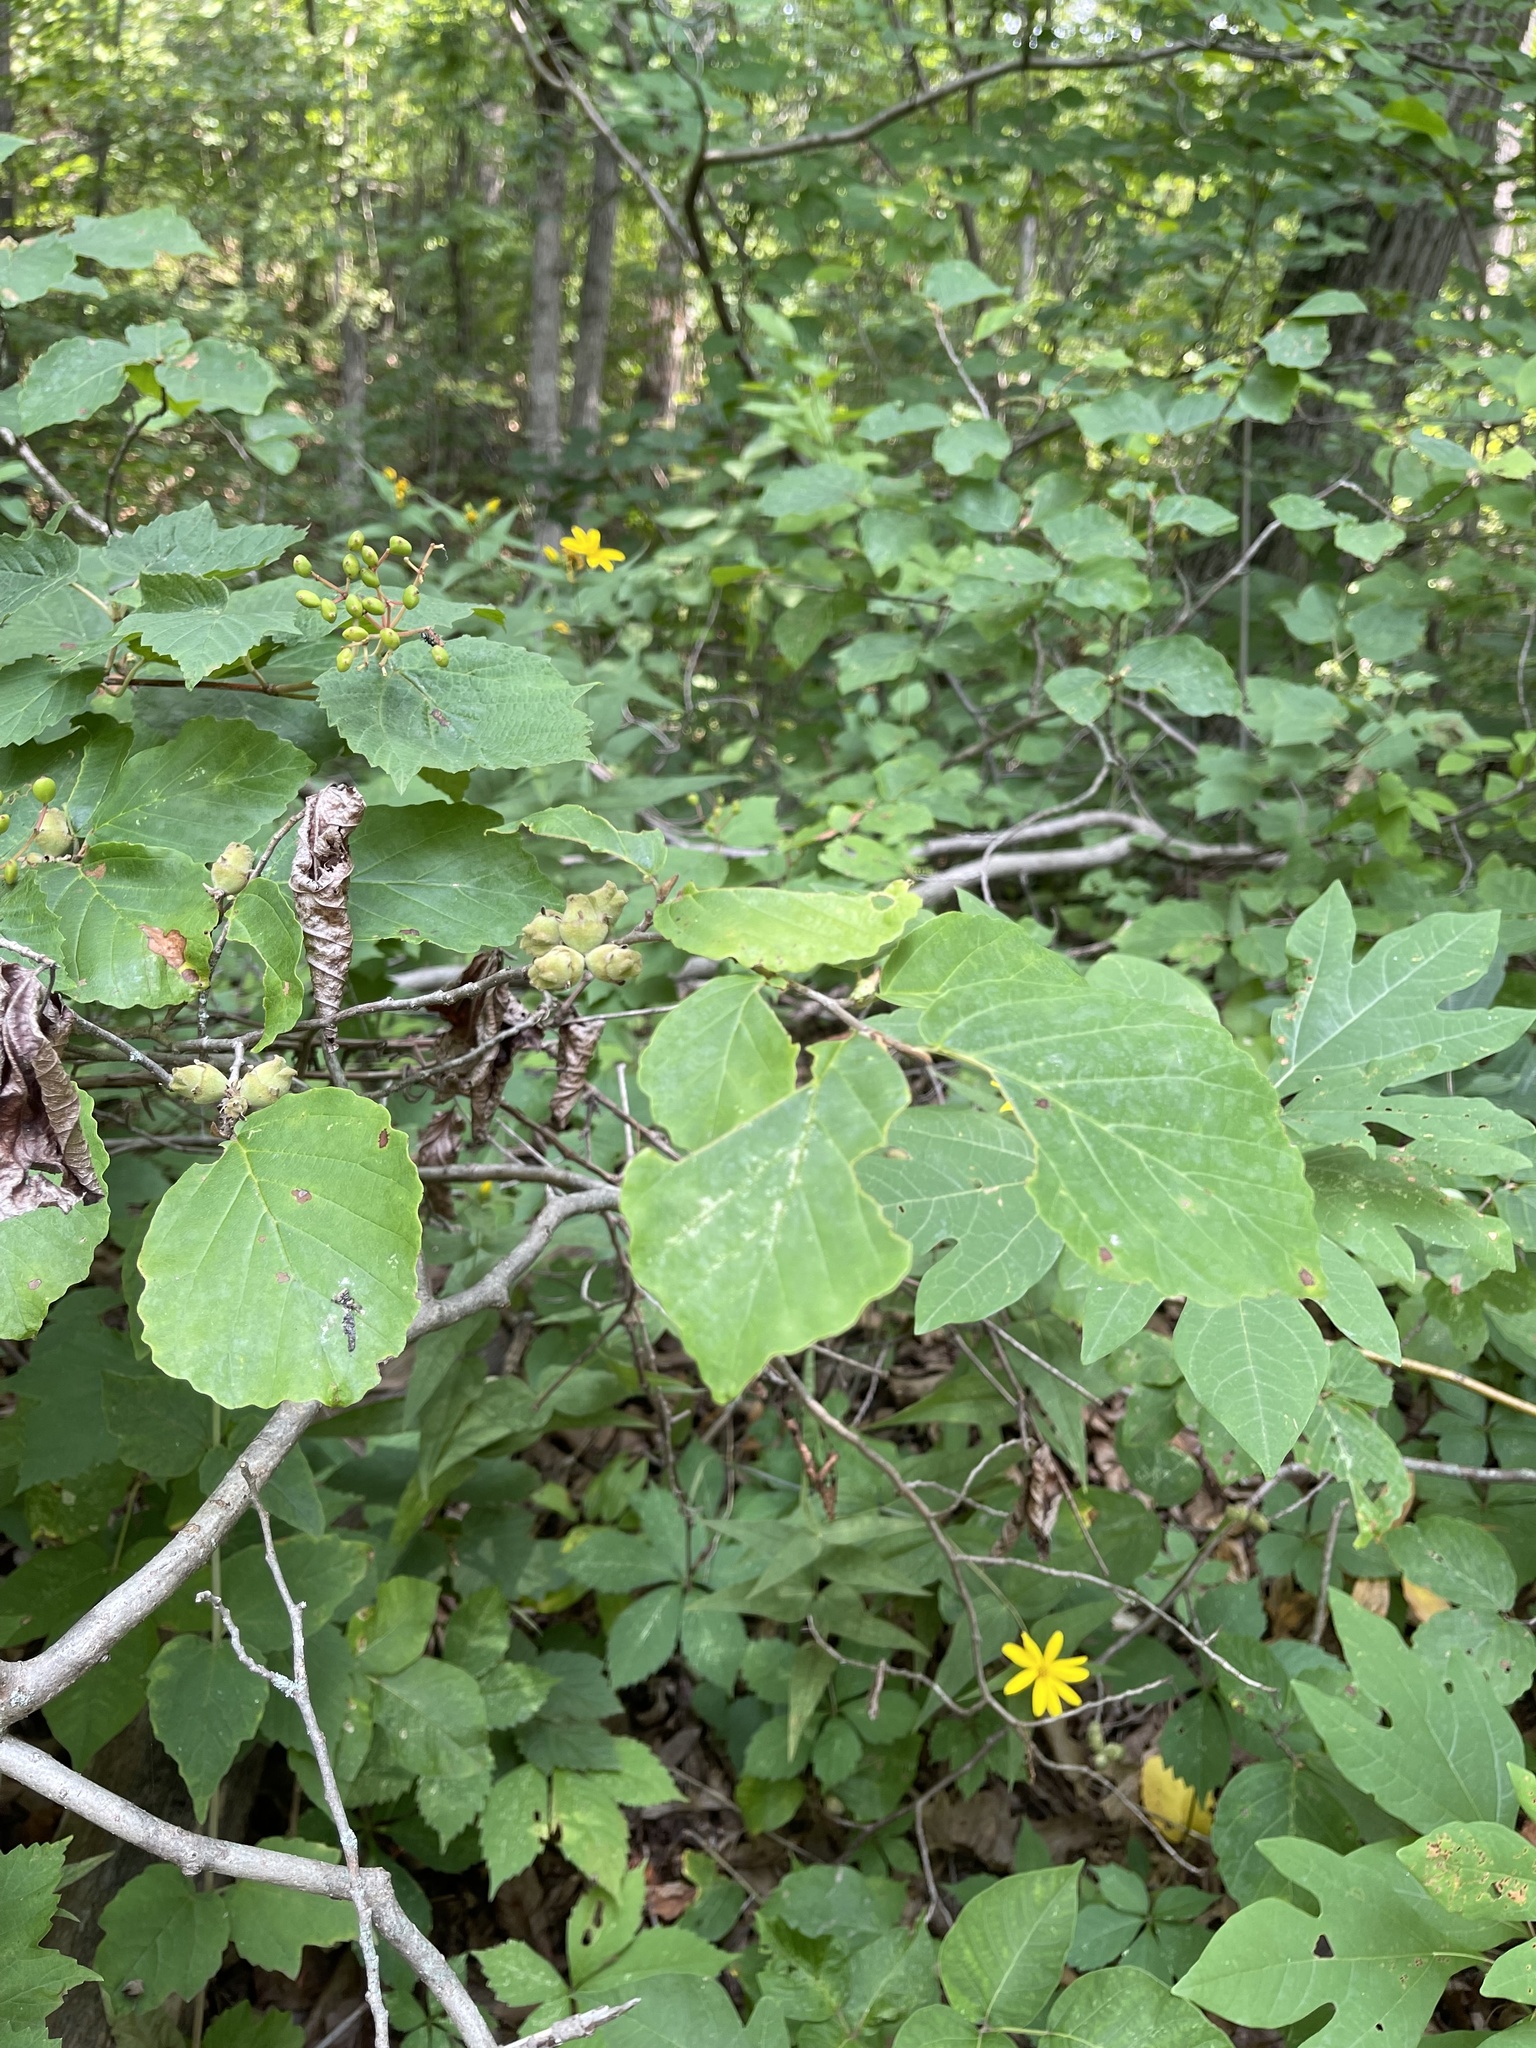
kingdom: Plantae
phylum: Tracheophyta
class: Magnoliopsida
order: Saxifragales
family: Hamamelidaceae
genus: Hamamelis
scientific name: Hamamelis virginiana
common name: Witch-hazel
